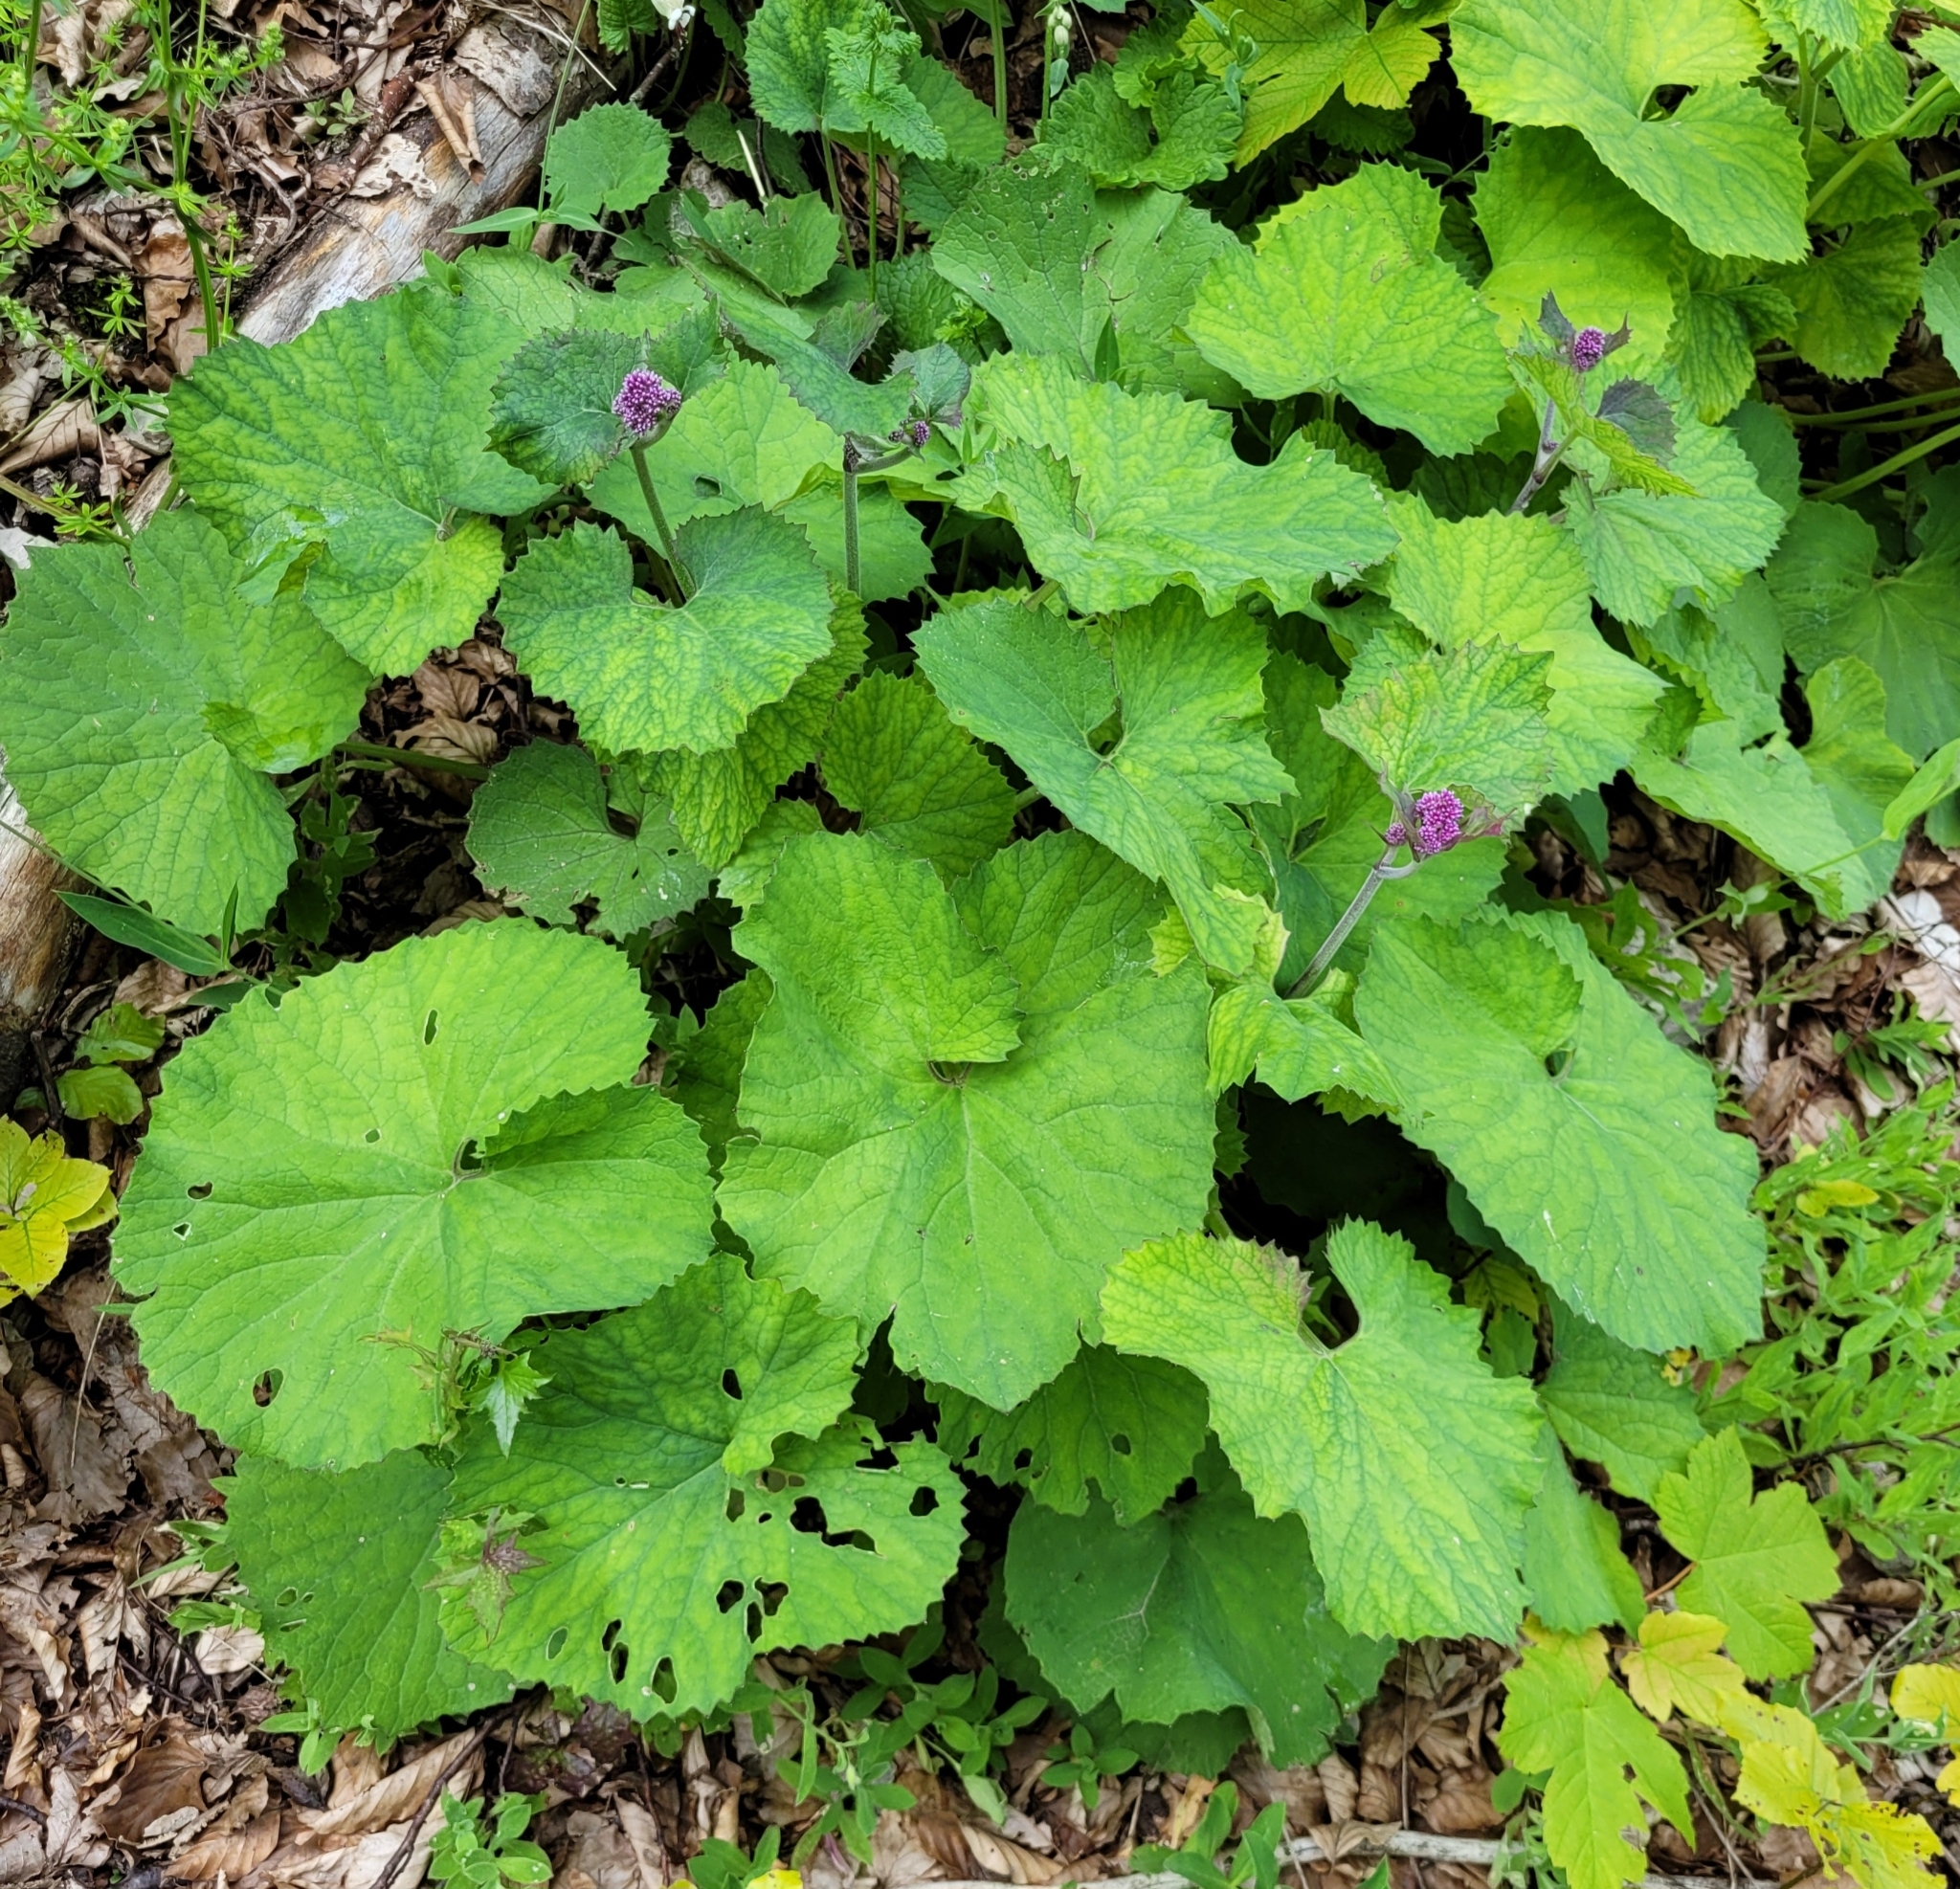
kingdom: Plantae
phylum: Tracheophyta
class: Magnoliopsida
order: Asterales
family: Asteraceae
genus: Adenostyles
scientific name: Adenostyles alpina
